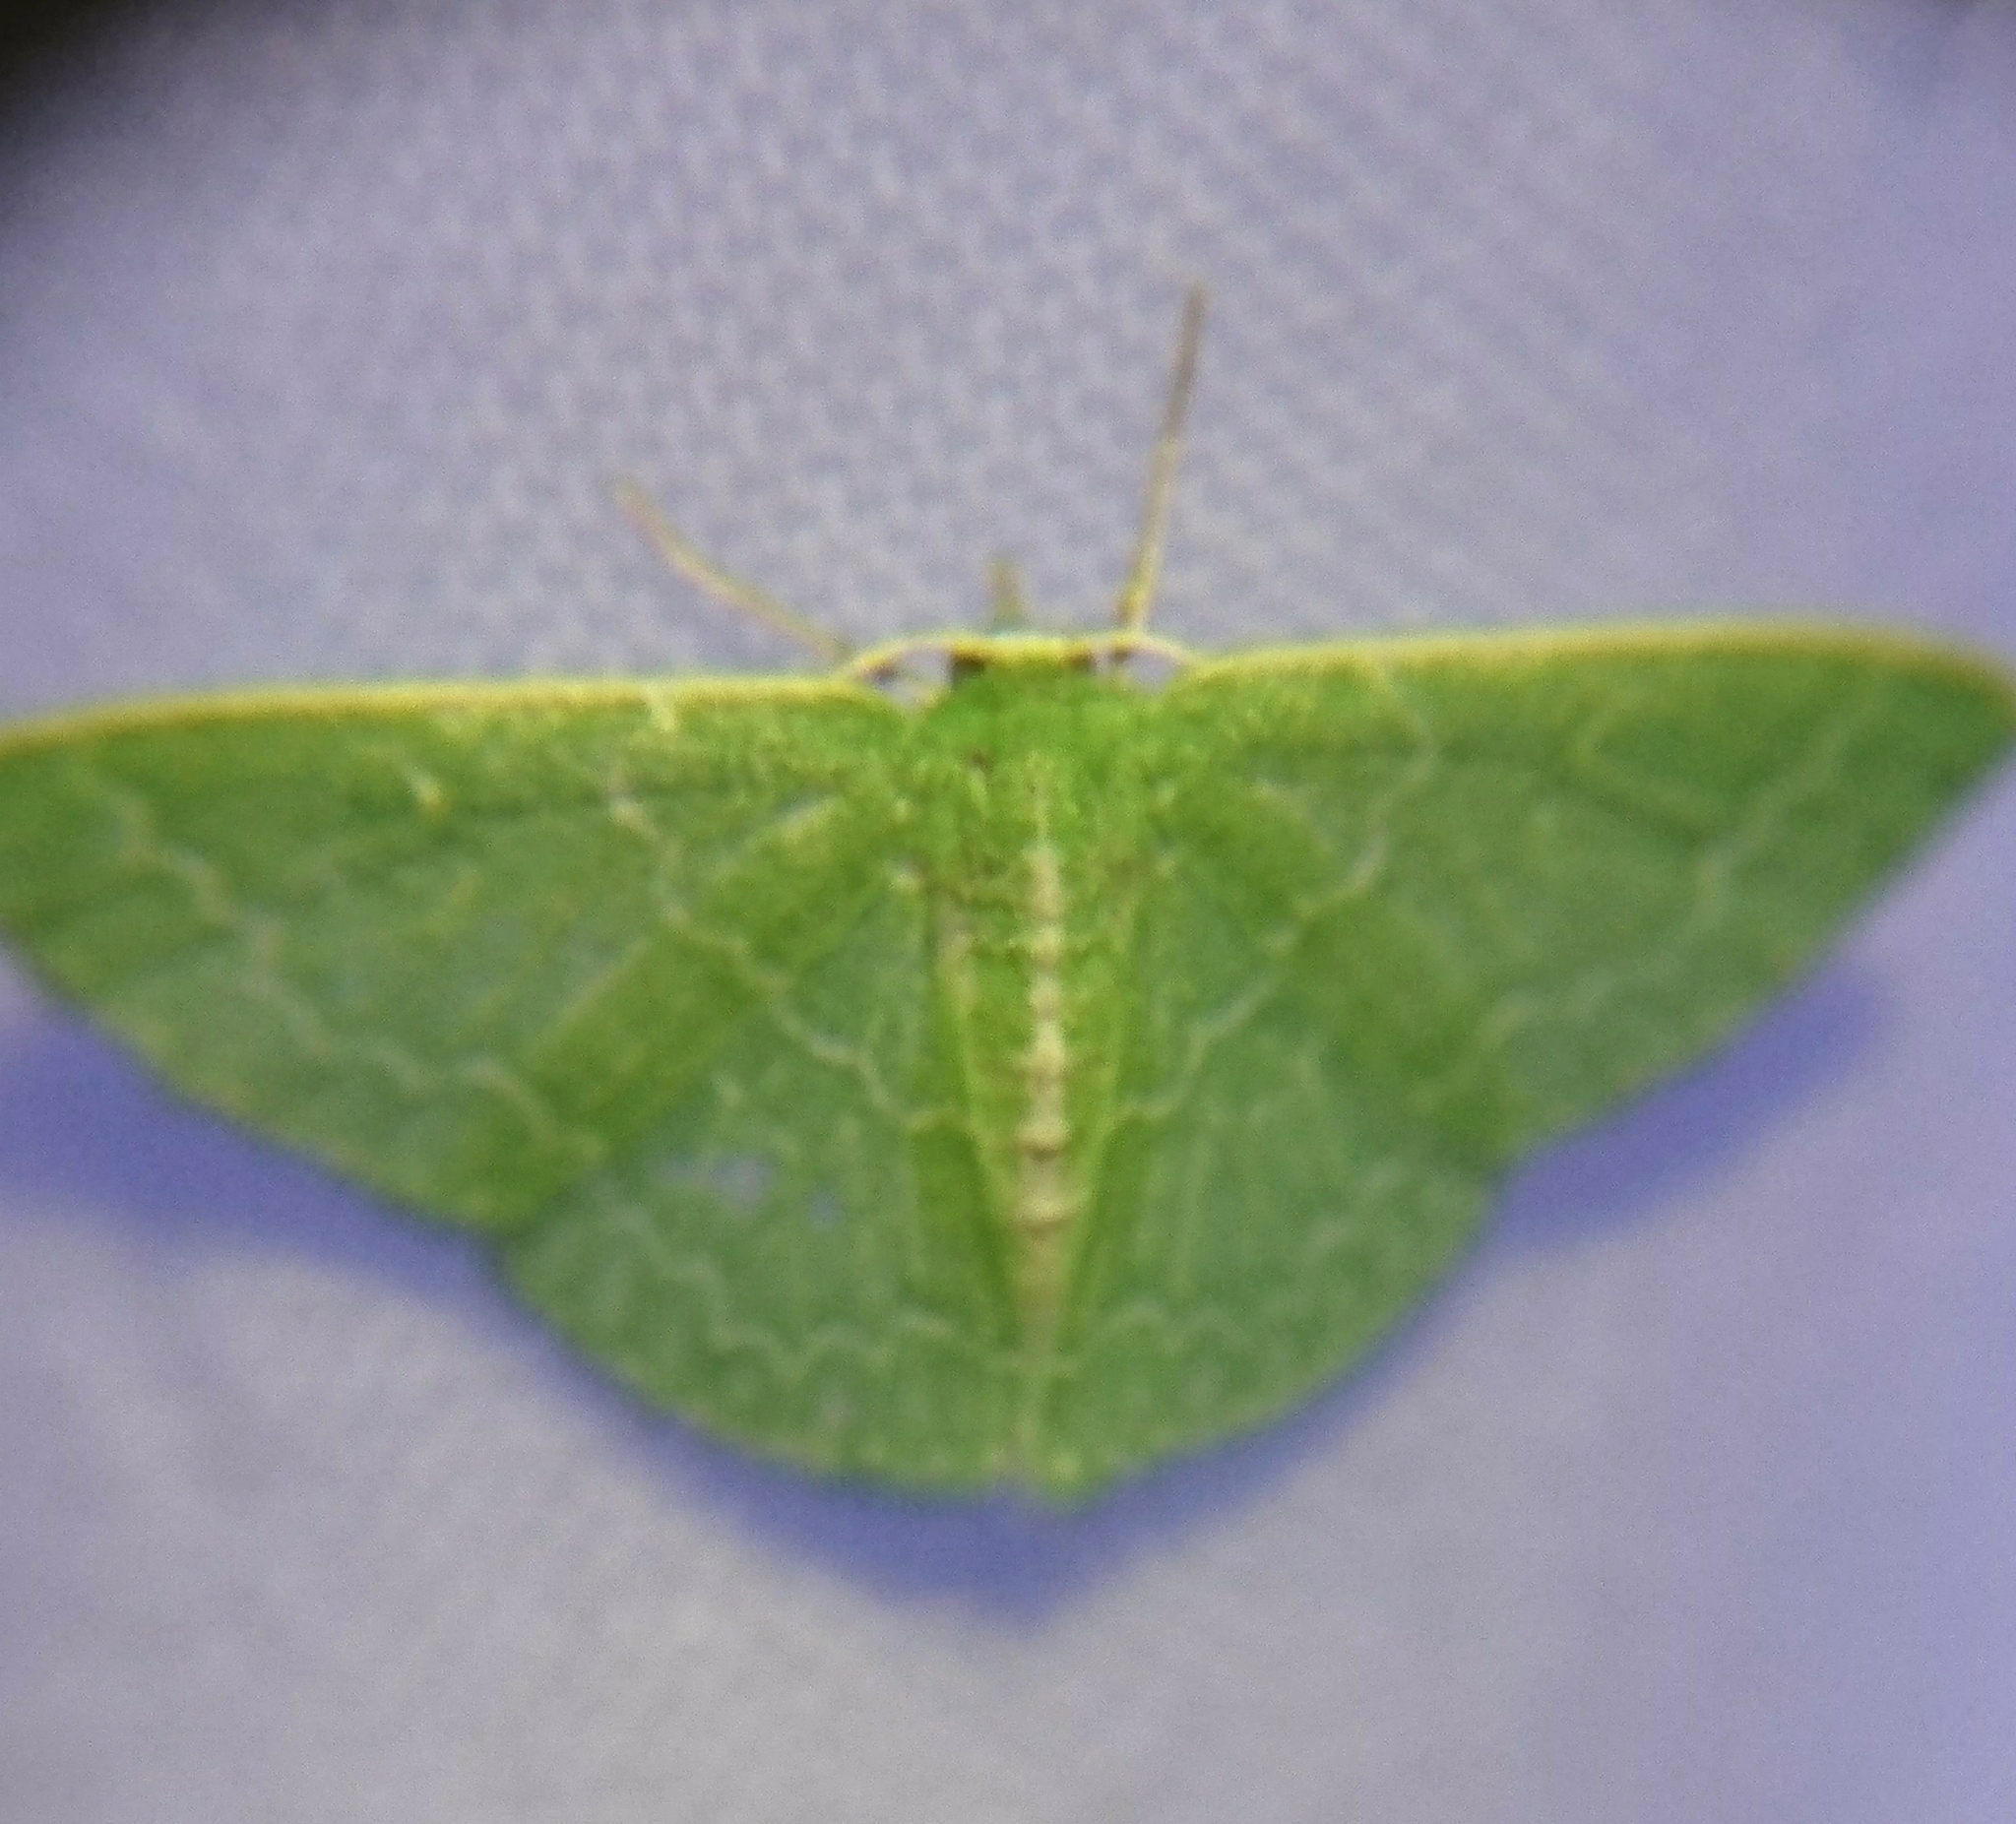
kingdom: Animalia
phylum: Arthropoda
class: Insecta
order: Lepidoptera
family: Geometridae
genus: Synchlora
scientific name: Synchlora frondaria
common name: Southern emerald
